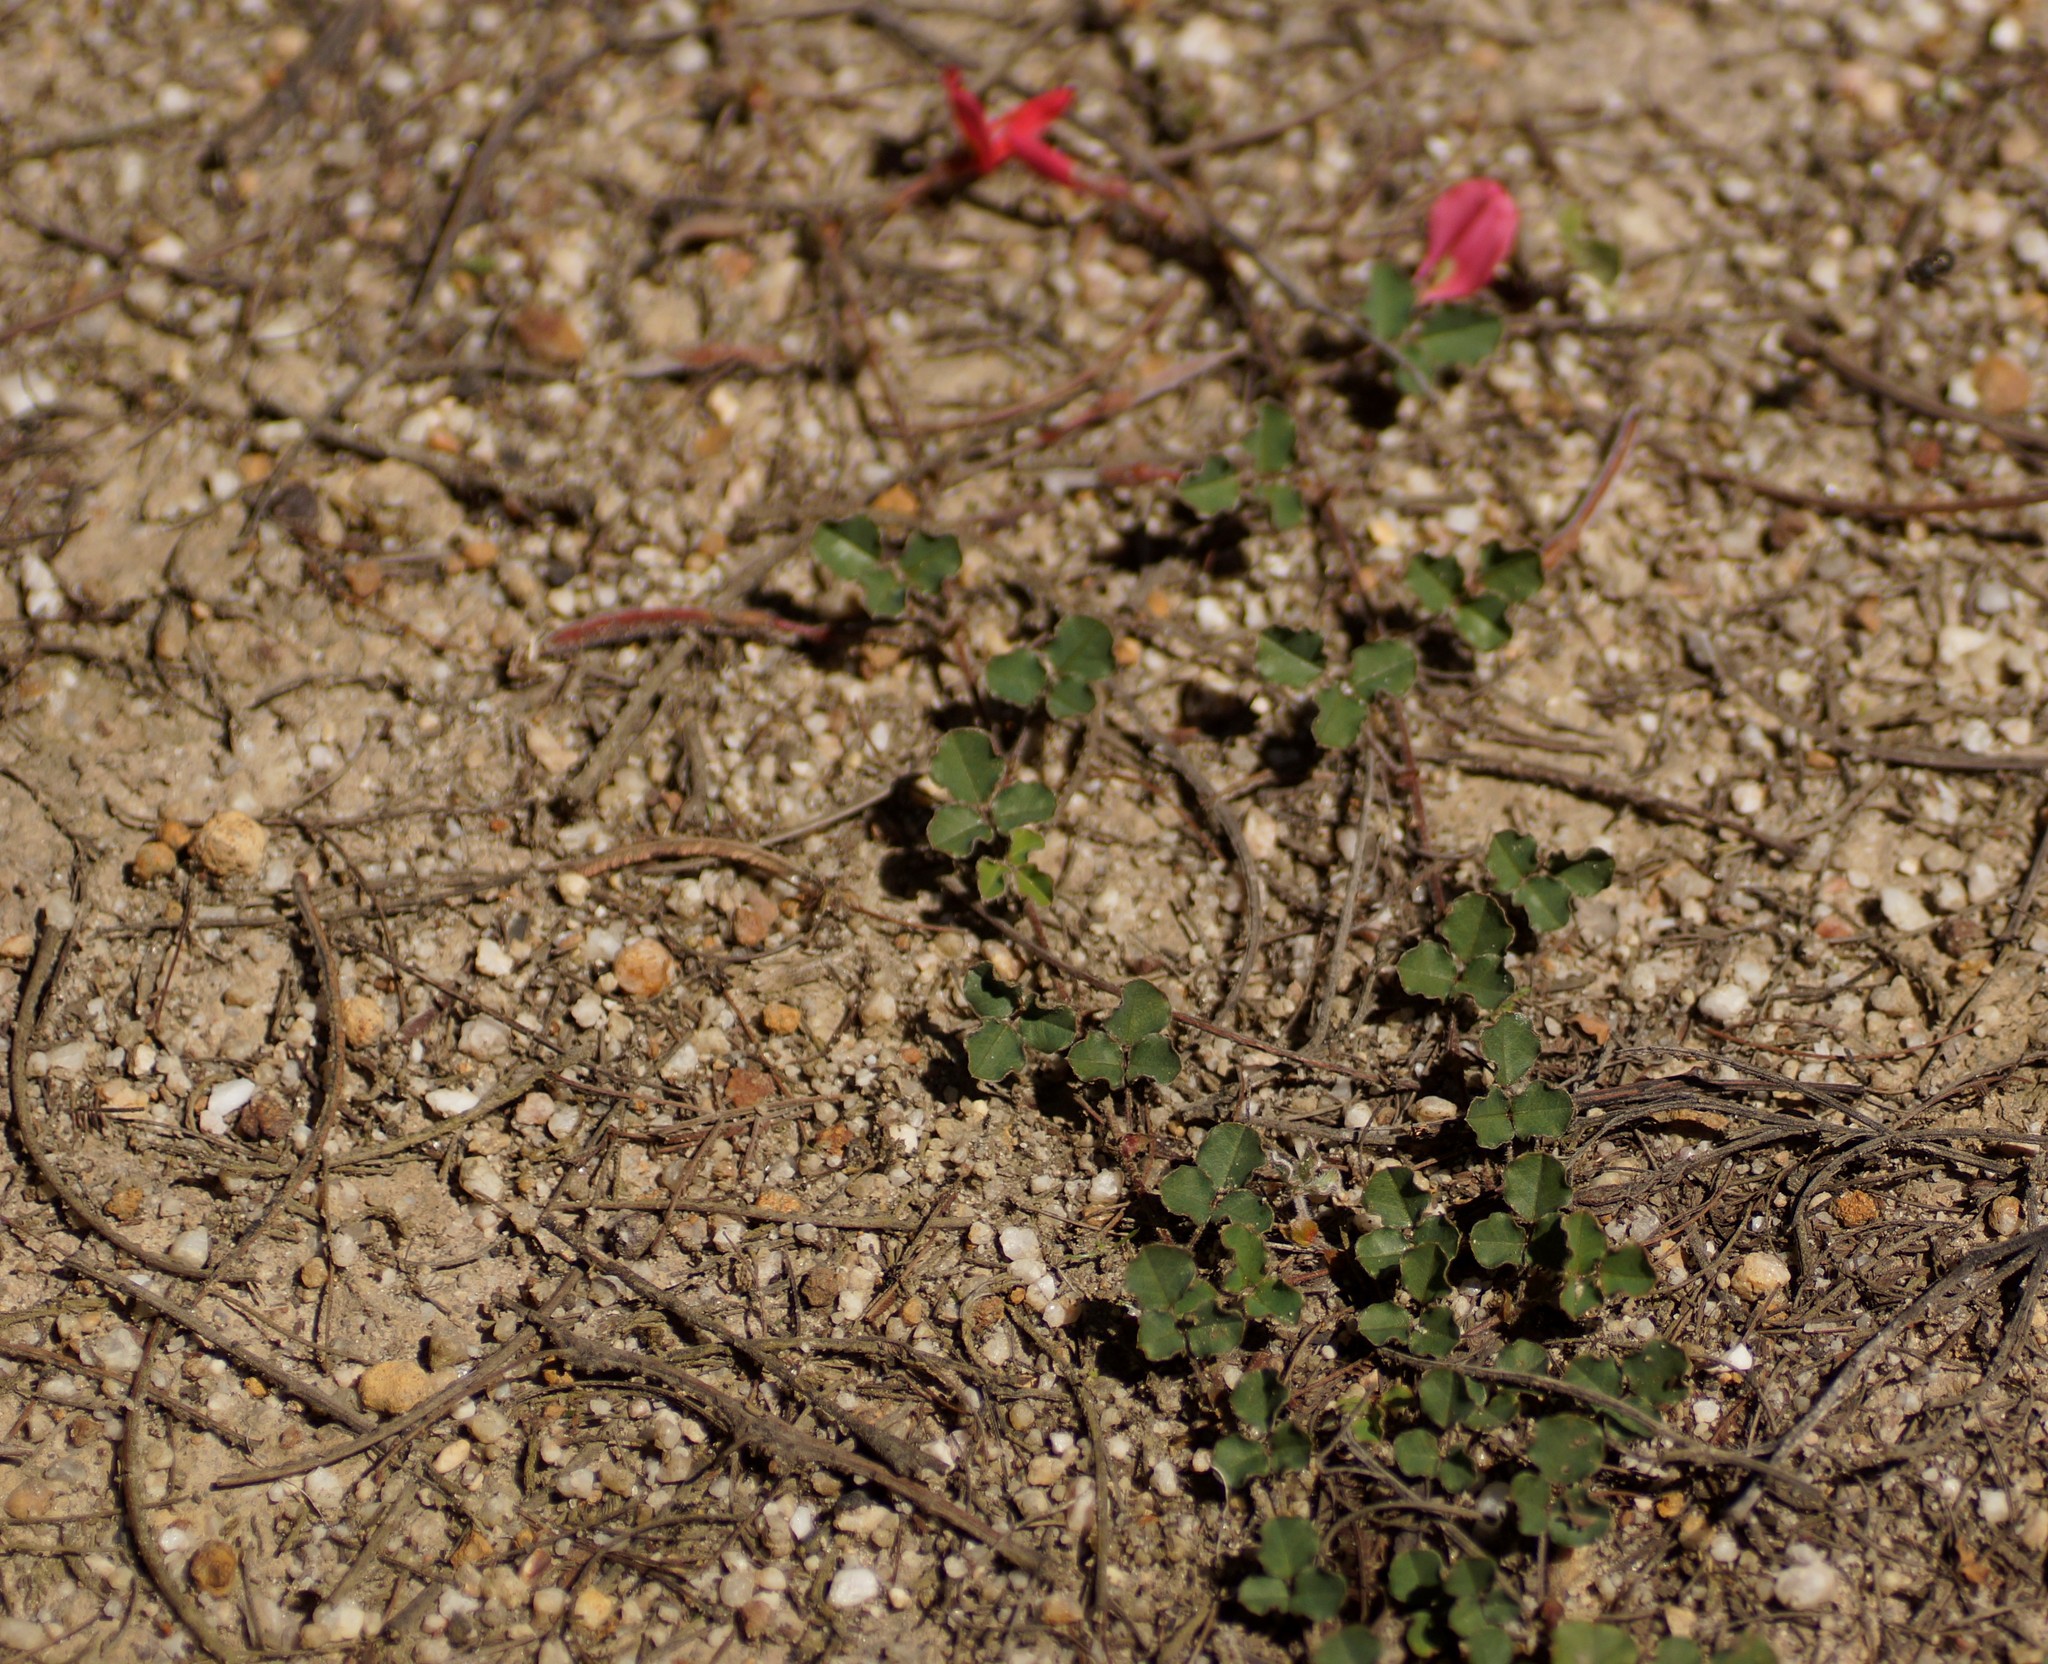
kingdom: Plantae
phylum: Tracheophyta
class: Magnoliopsida
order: Fabales
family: Fabaceae
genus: Kennedia
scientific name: Kennedia prostrata
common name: Running-postman
